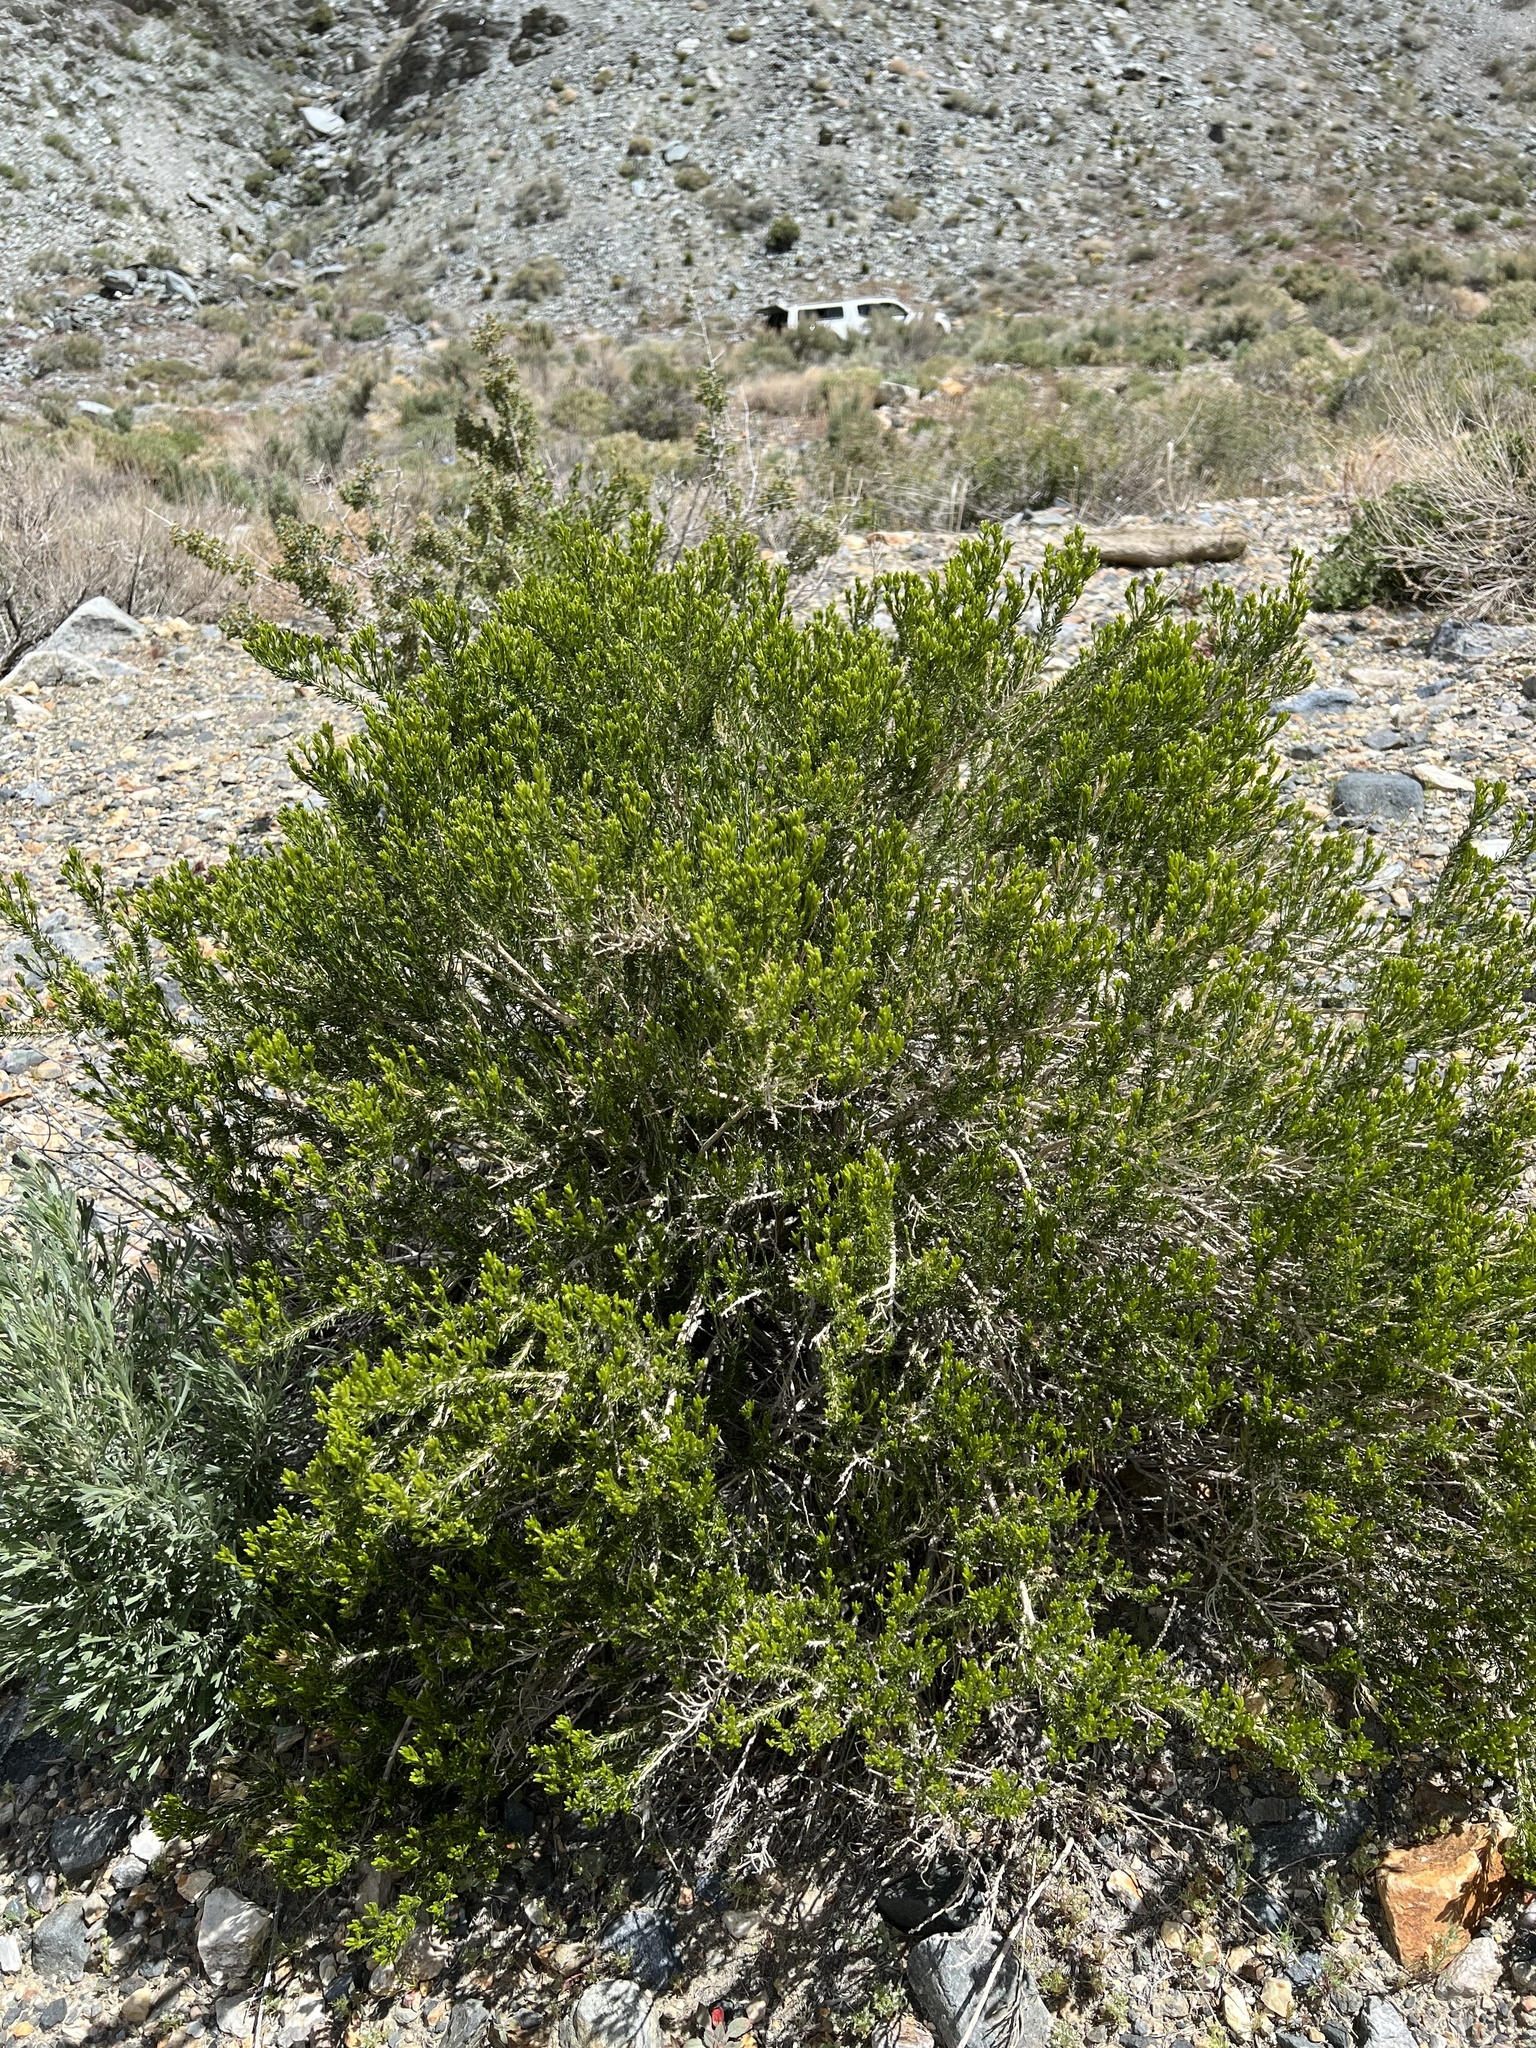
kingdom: Plantae
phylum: Tracheophyta
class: Magnoliopsida
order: Asterales
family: Asteraceae
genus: Tetradymia
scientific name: Tetradymia glabrata
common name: Smooth tetradymia
